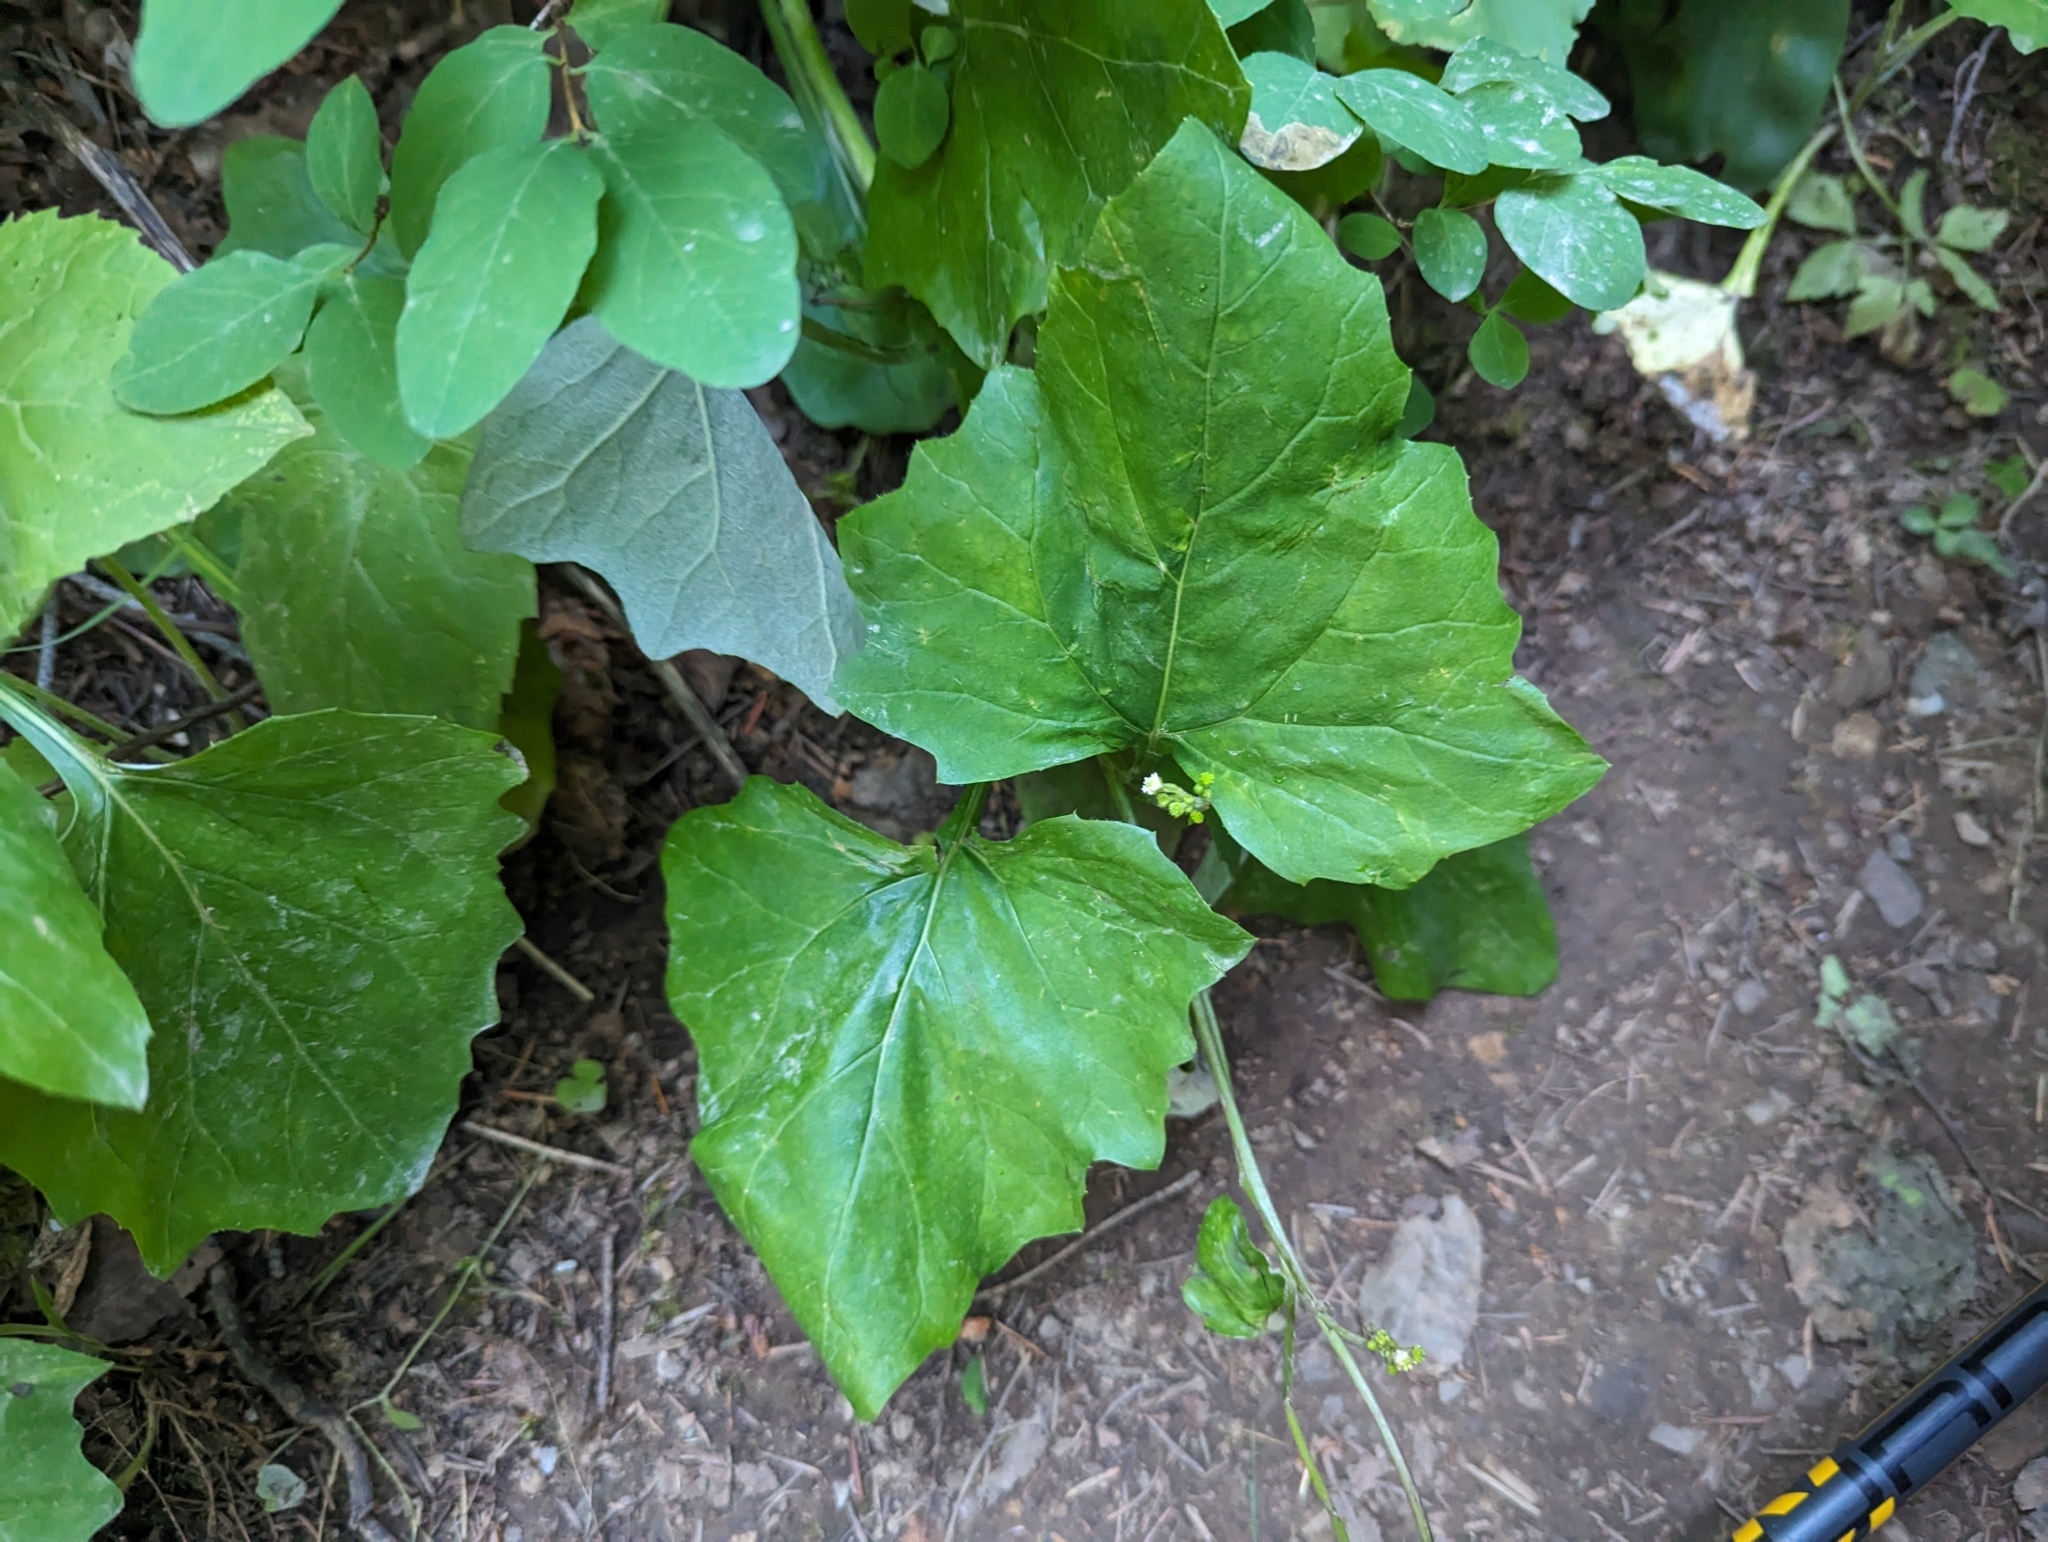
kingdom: Plantae
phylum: Tracheophyta
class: Magnoliopsida
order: Asterales
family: Asteraceae
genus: Adenocaulon
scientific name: Adenocaulon bicolor
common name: Trailplant
